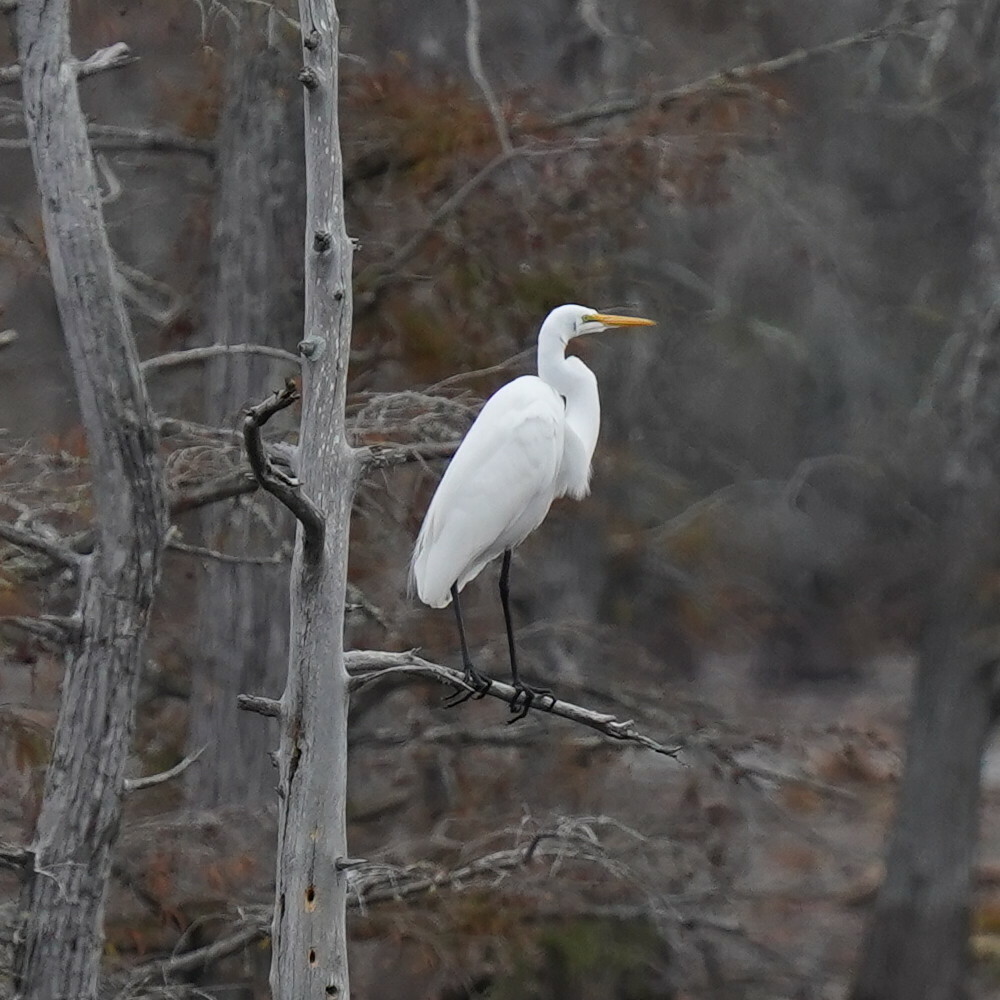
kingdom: Animalia
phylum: Chordata
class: Aves
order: Pelecaniformes
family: Ardeidae
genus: Ardea
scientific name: Ardea alba
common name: Great egret
